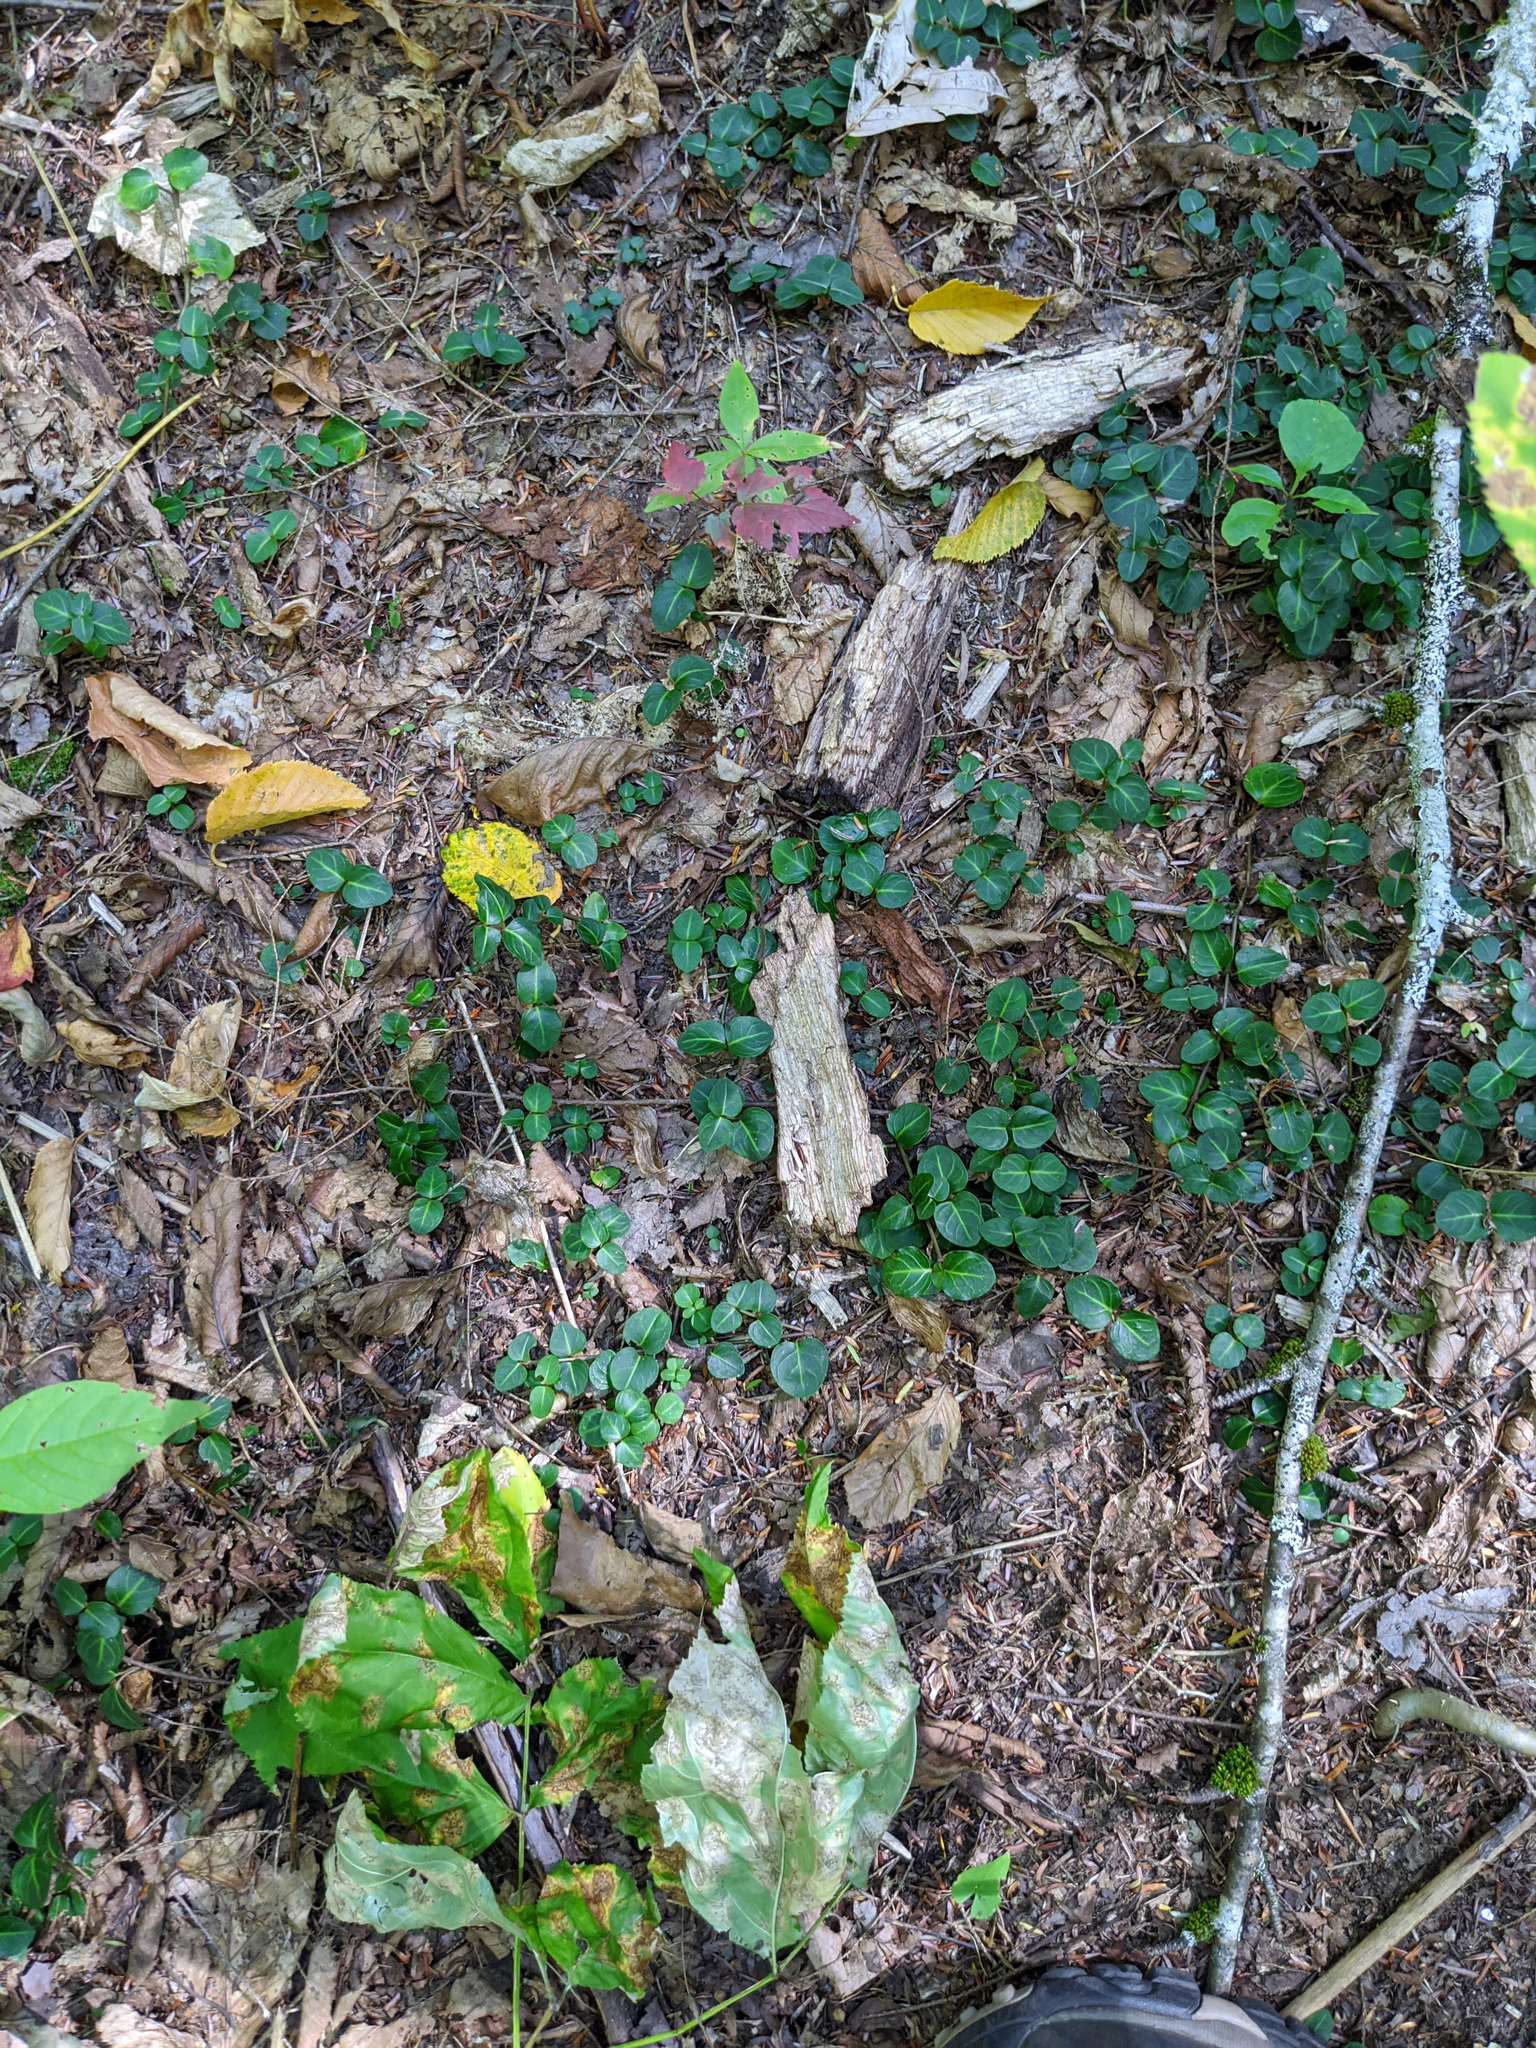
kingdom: Plantae
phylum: Tracheophyta
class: Magnoliopsida
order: Gentianales
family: Rubiaceae
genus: Mitchella
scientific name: Mitchella repens
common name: Partridge-berry
